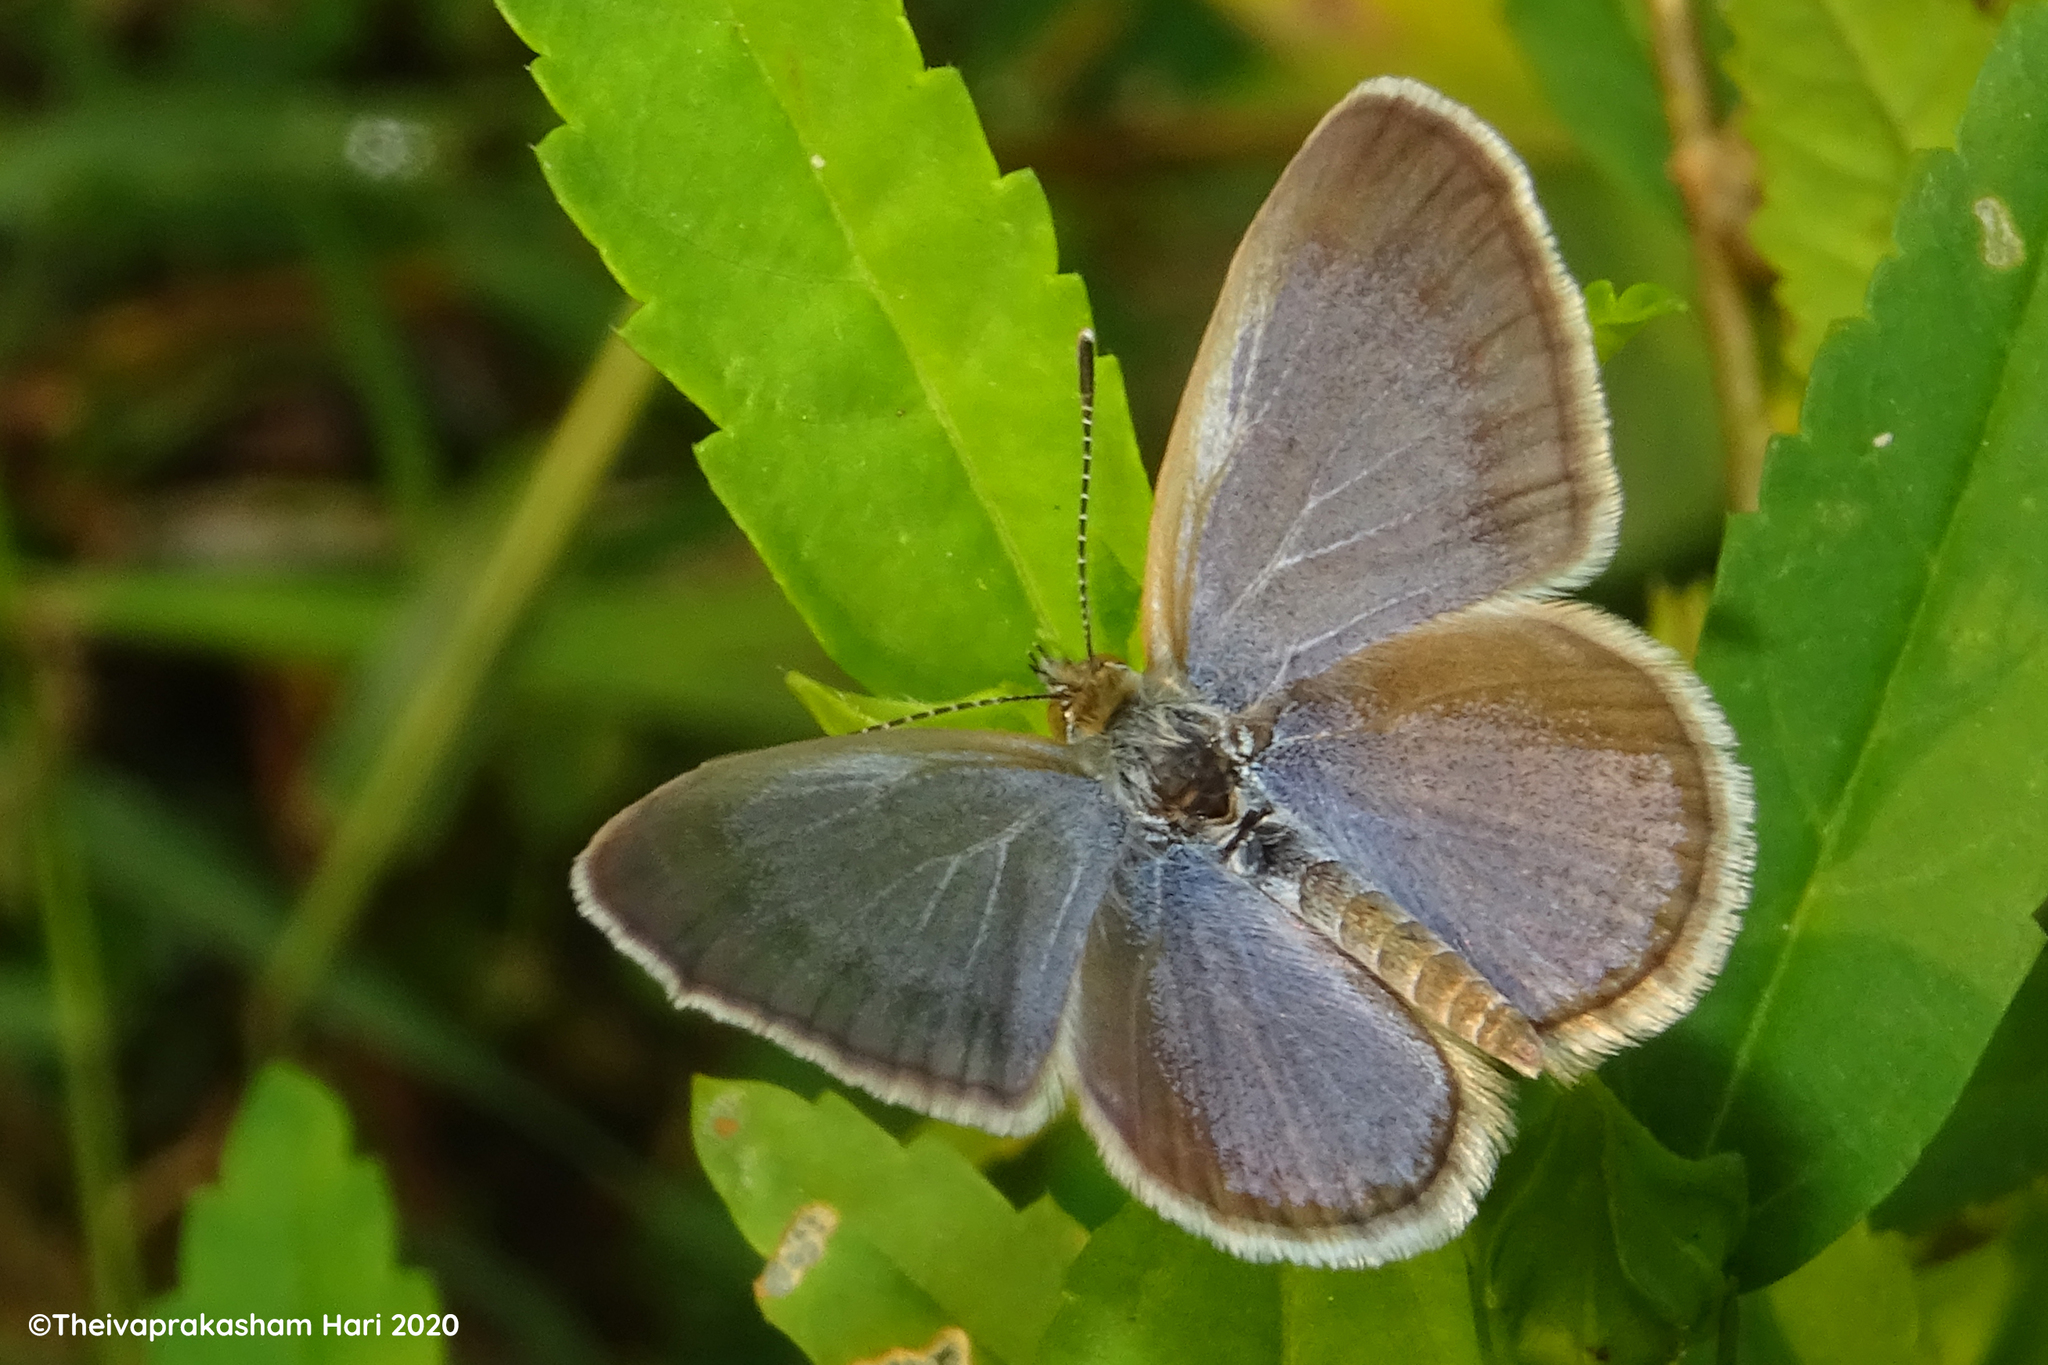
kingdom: Animalia
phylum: Arthropoda
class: Insecta
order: Lepidoptera
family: Lycaenidae
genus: Zizina
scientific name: Zizina otis
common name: Lesser grass blue
